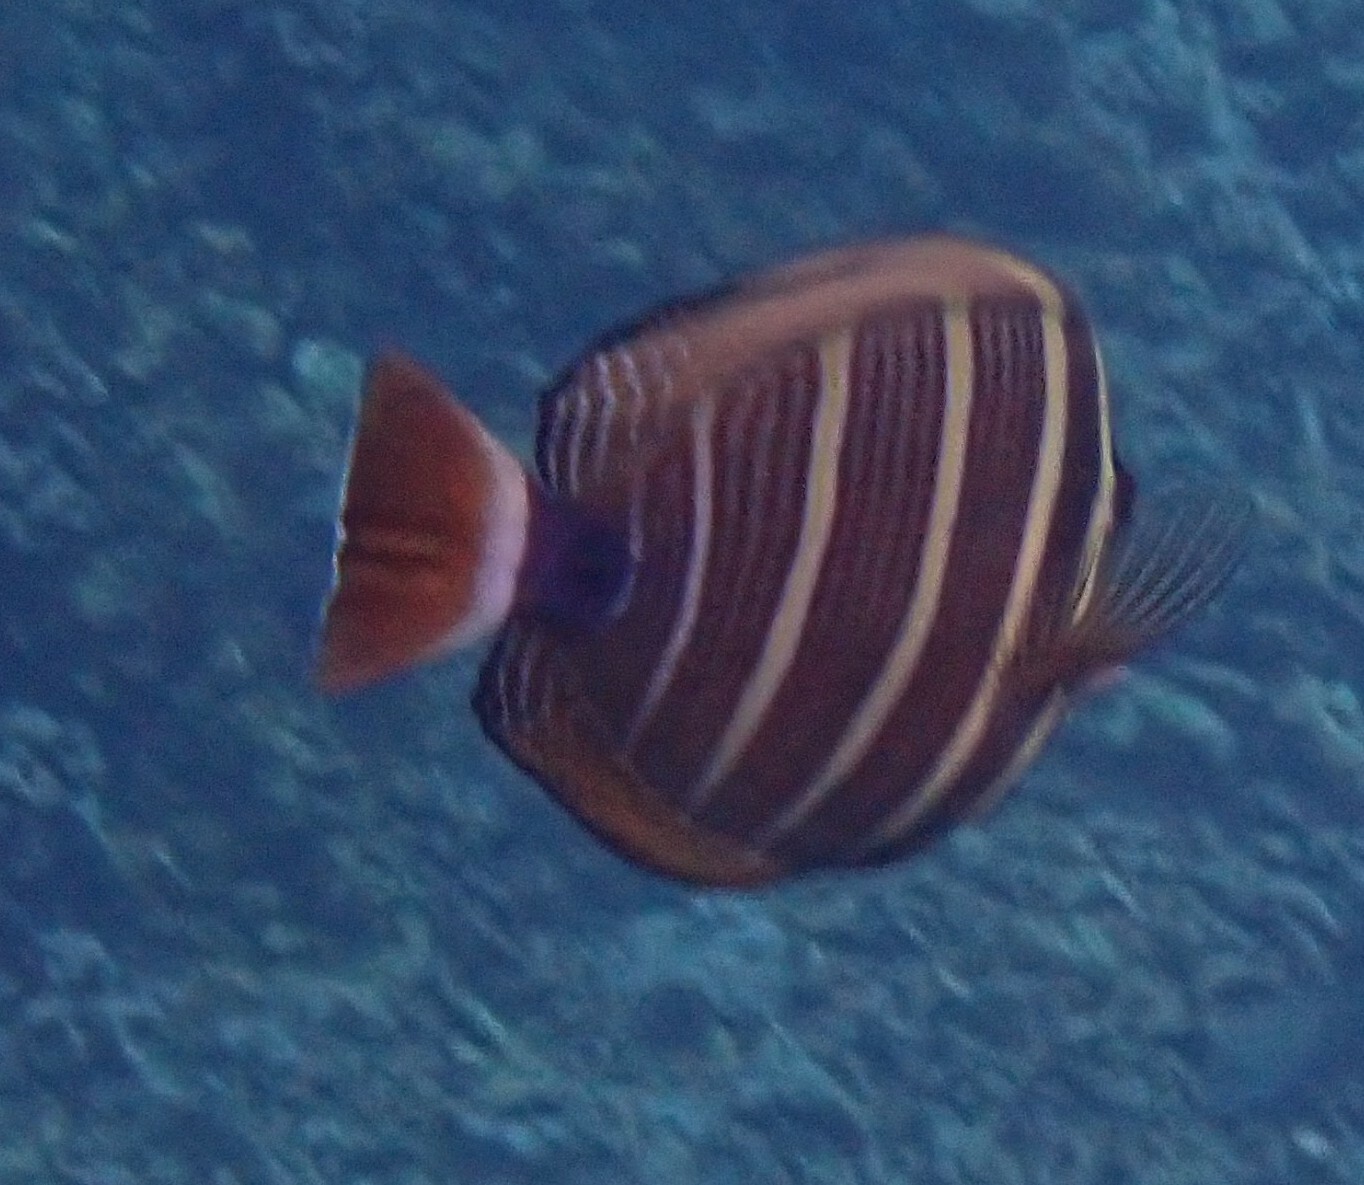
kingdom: Animalia
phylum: Chordata
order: Perciformes
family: Acanthuridae
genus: Zebrasoma
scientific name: Zebrasoma veliferum
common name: Sailfin surgeonfish
